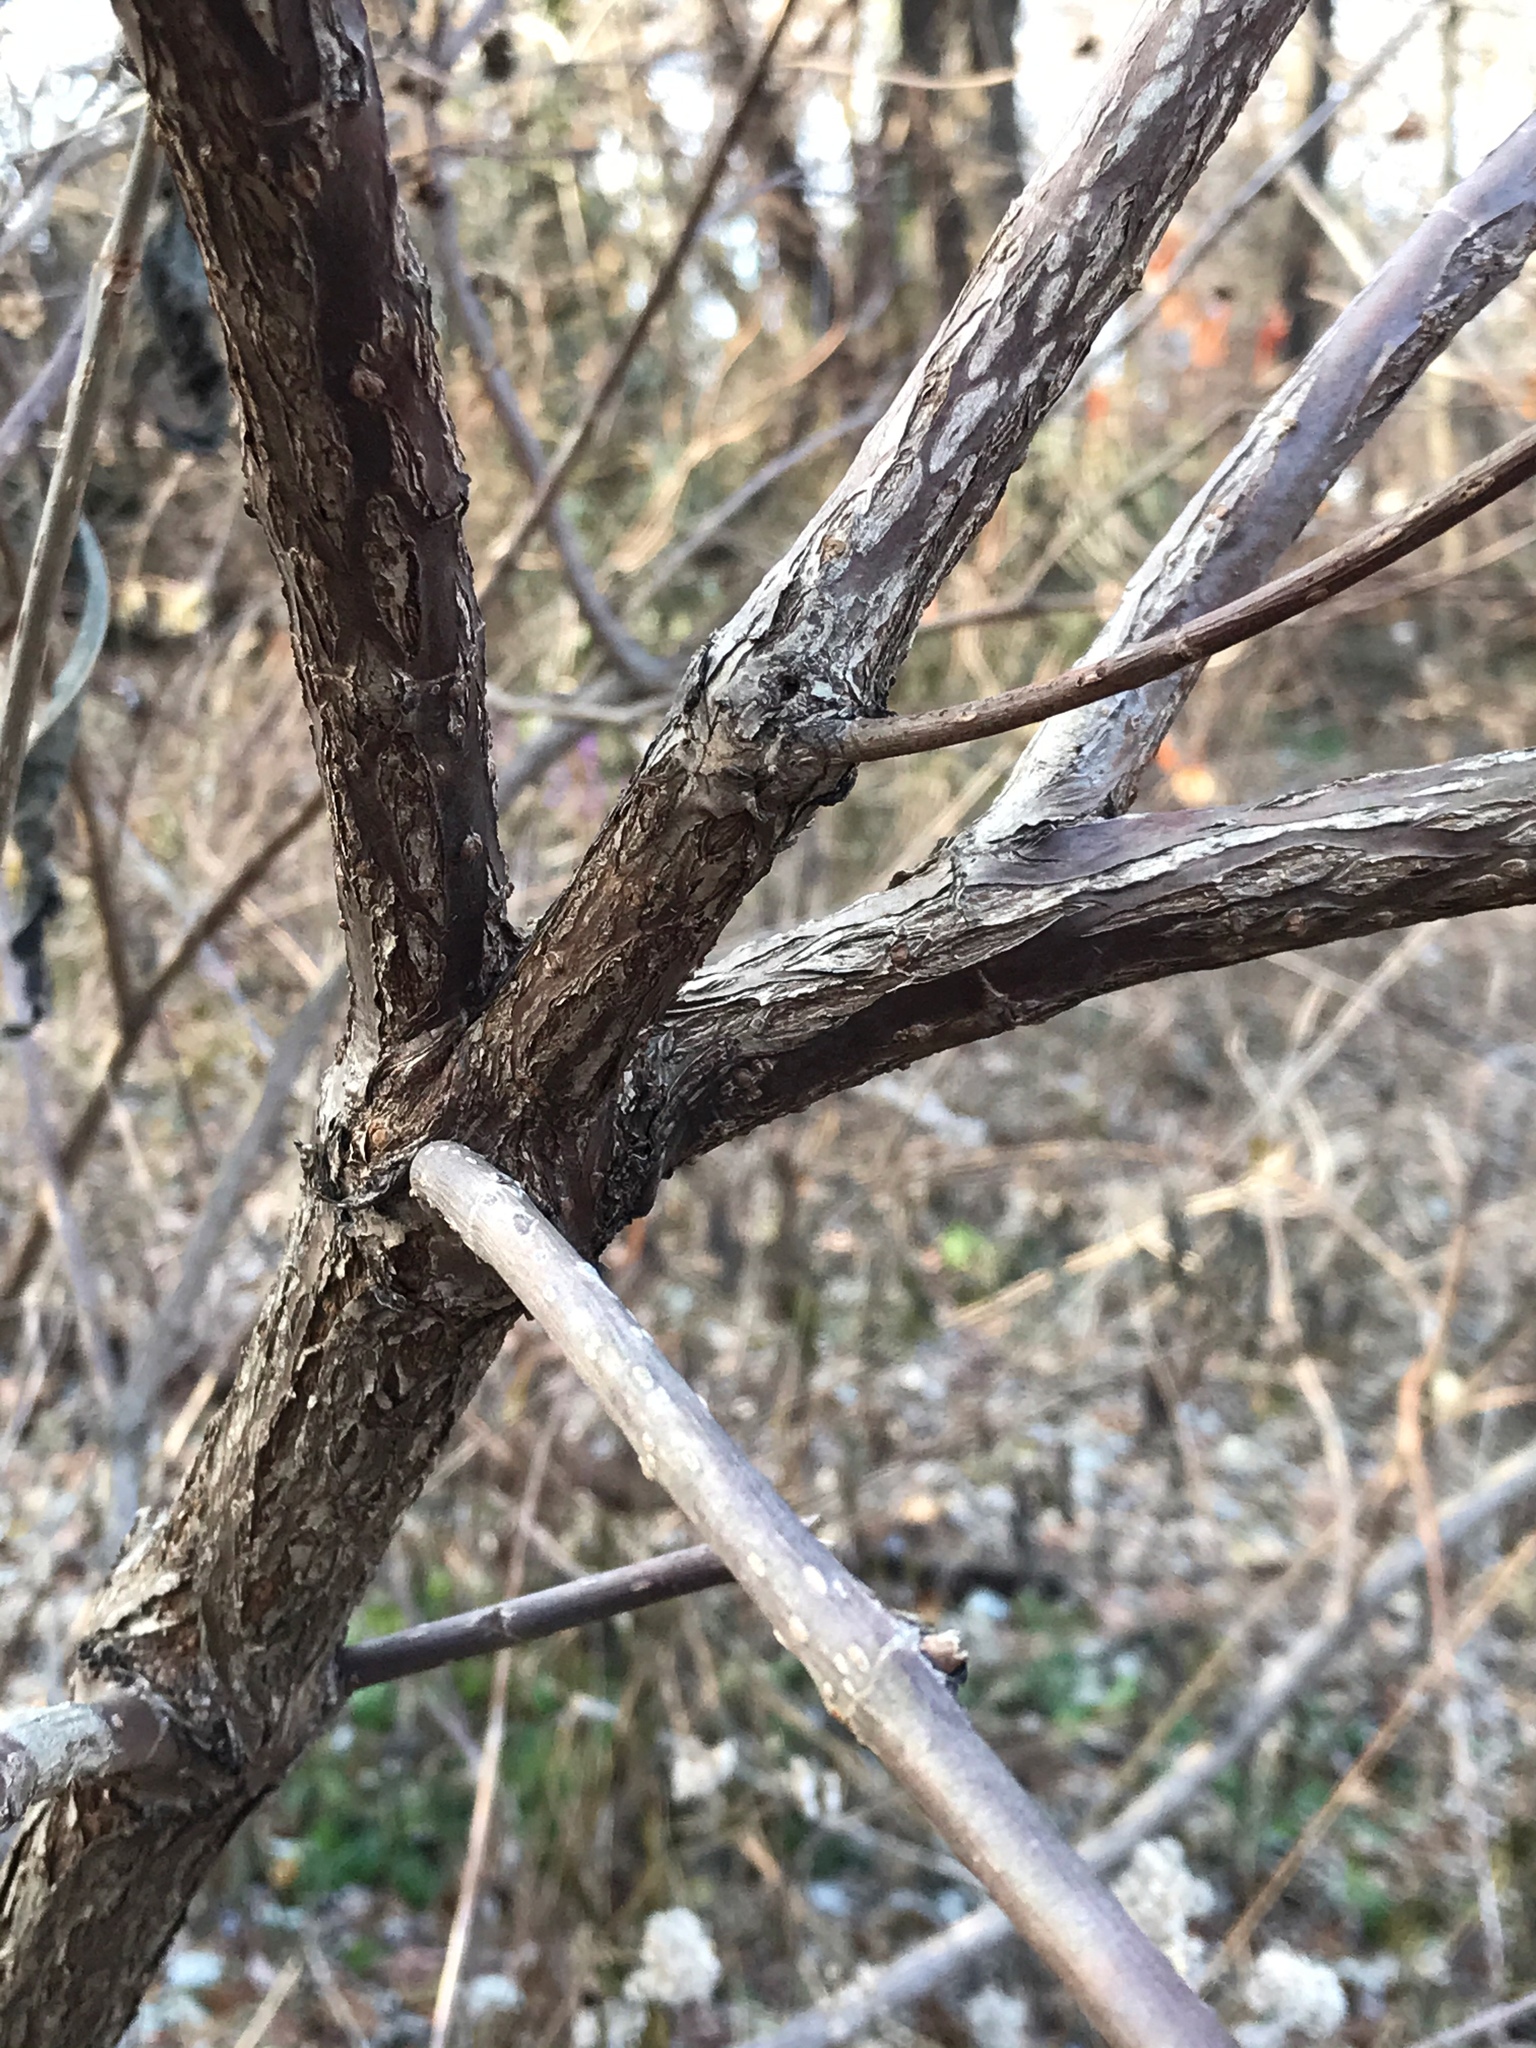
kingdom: Plantae
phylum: Tracheophyta
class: Magnoliopsida
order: Gentianales
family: Rubiaceae
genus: Cephalanthus
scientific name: Cephalanthus occidentalis
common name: Button-willow
